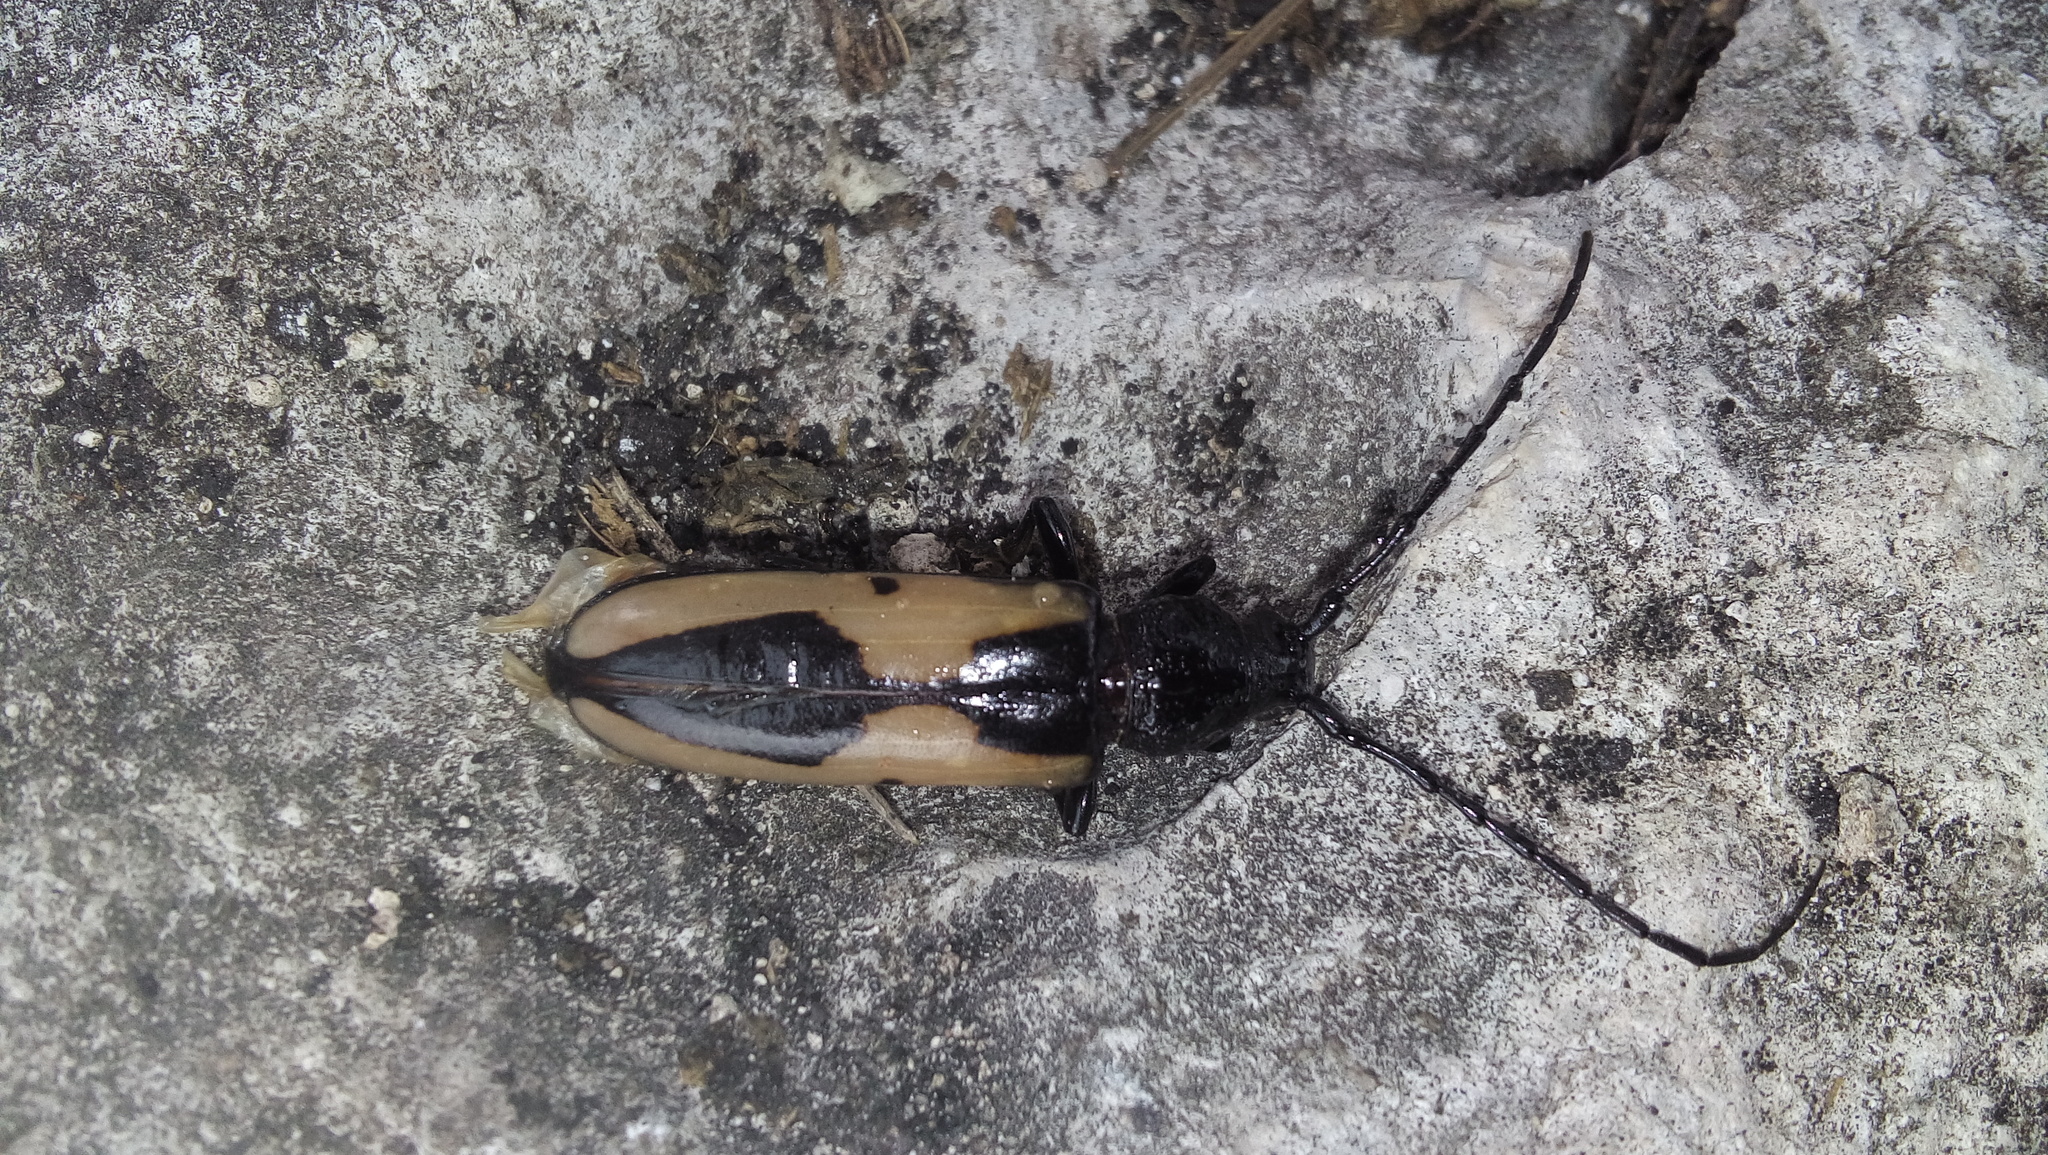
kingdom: Animalia
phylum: Arthropoda
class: Insecta
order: Coleoptera
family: Cerambycidae
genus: Poeciloxestia
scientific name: Poeciloxestia lanceolata
